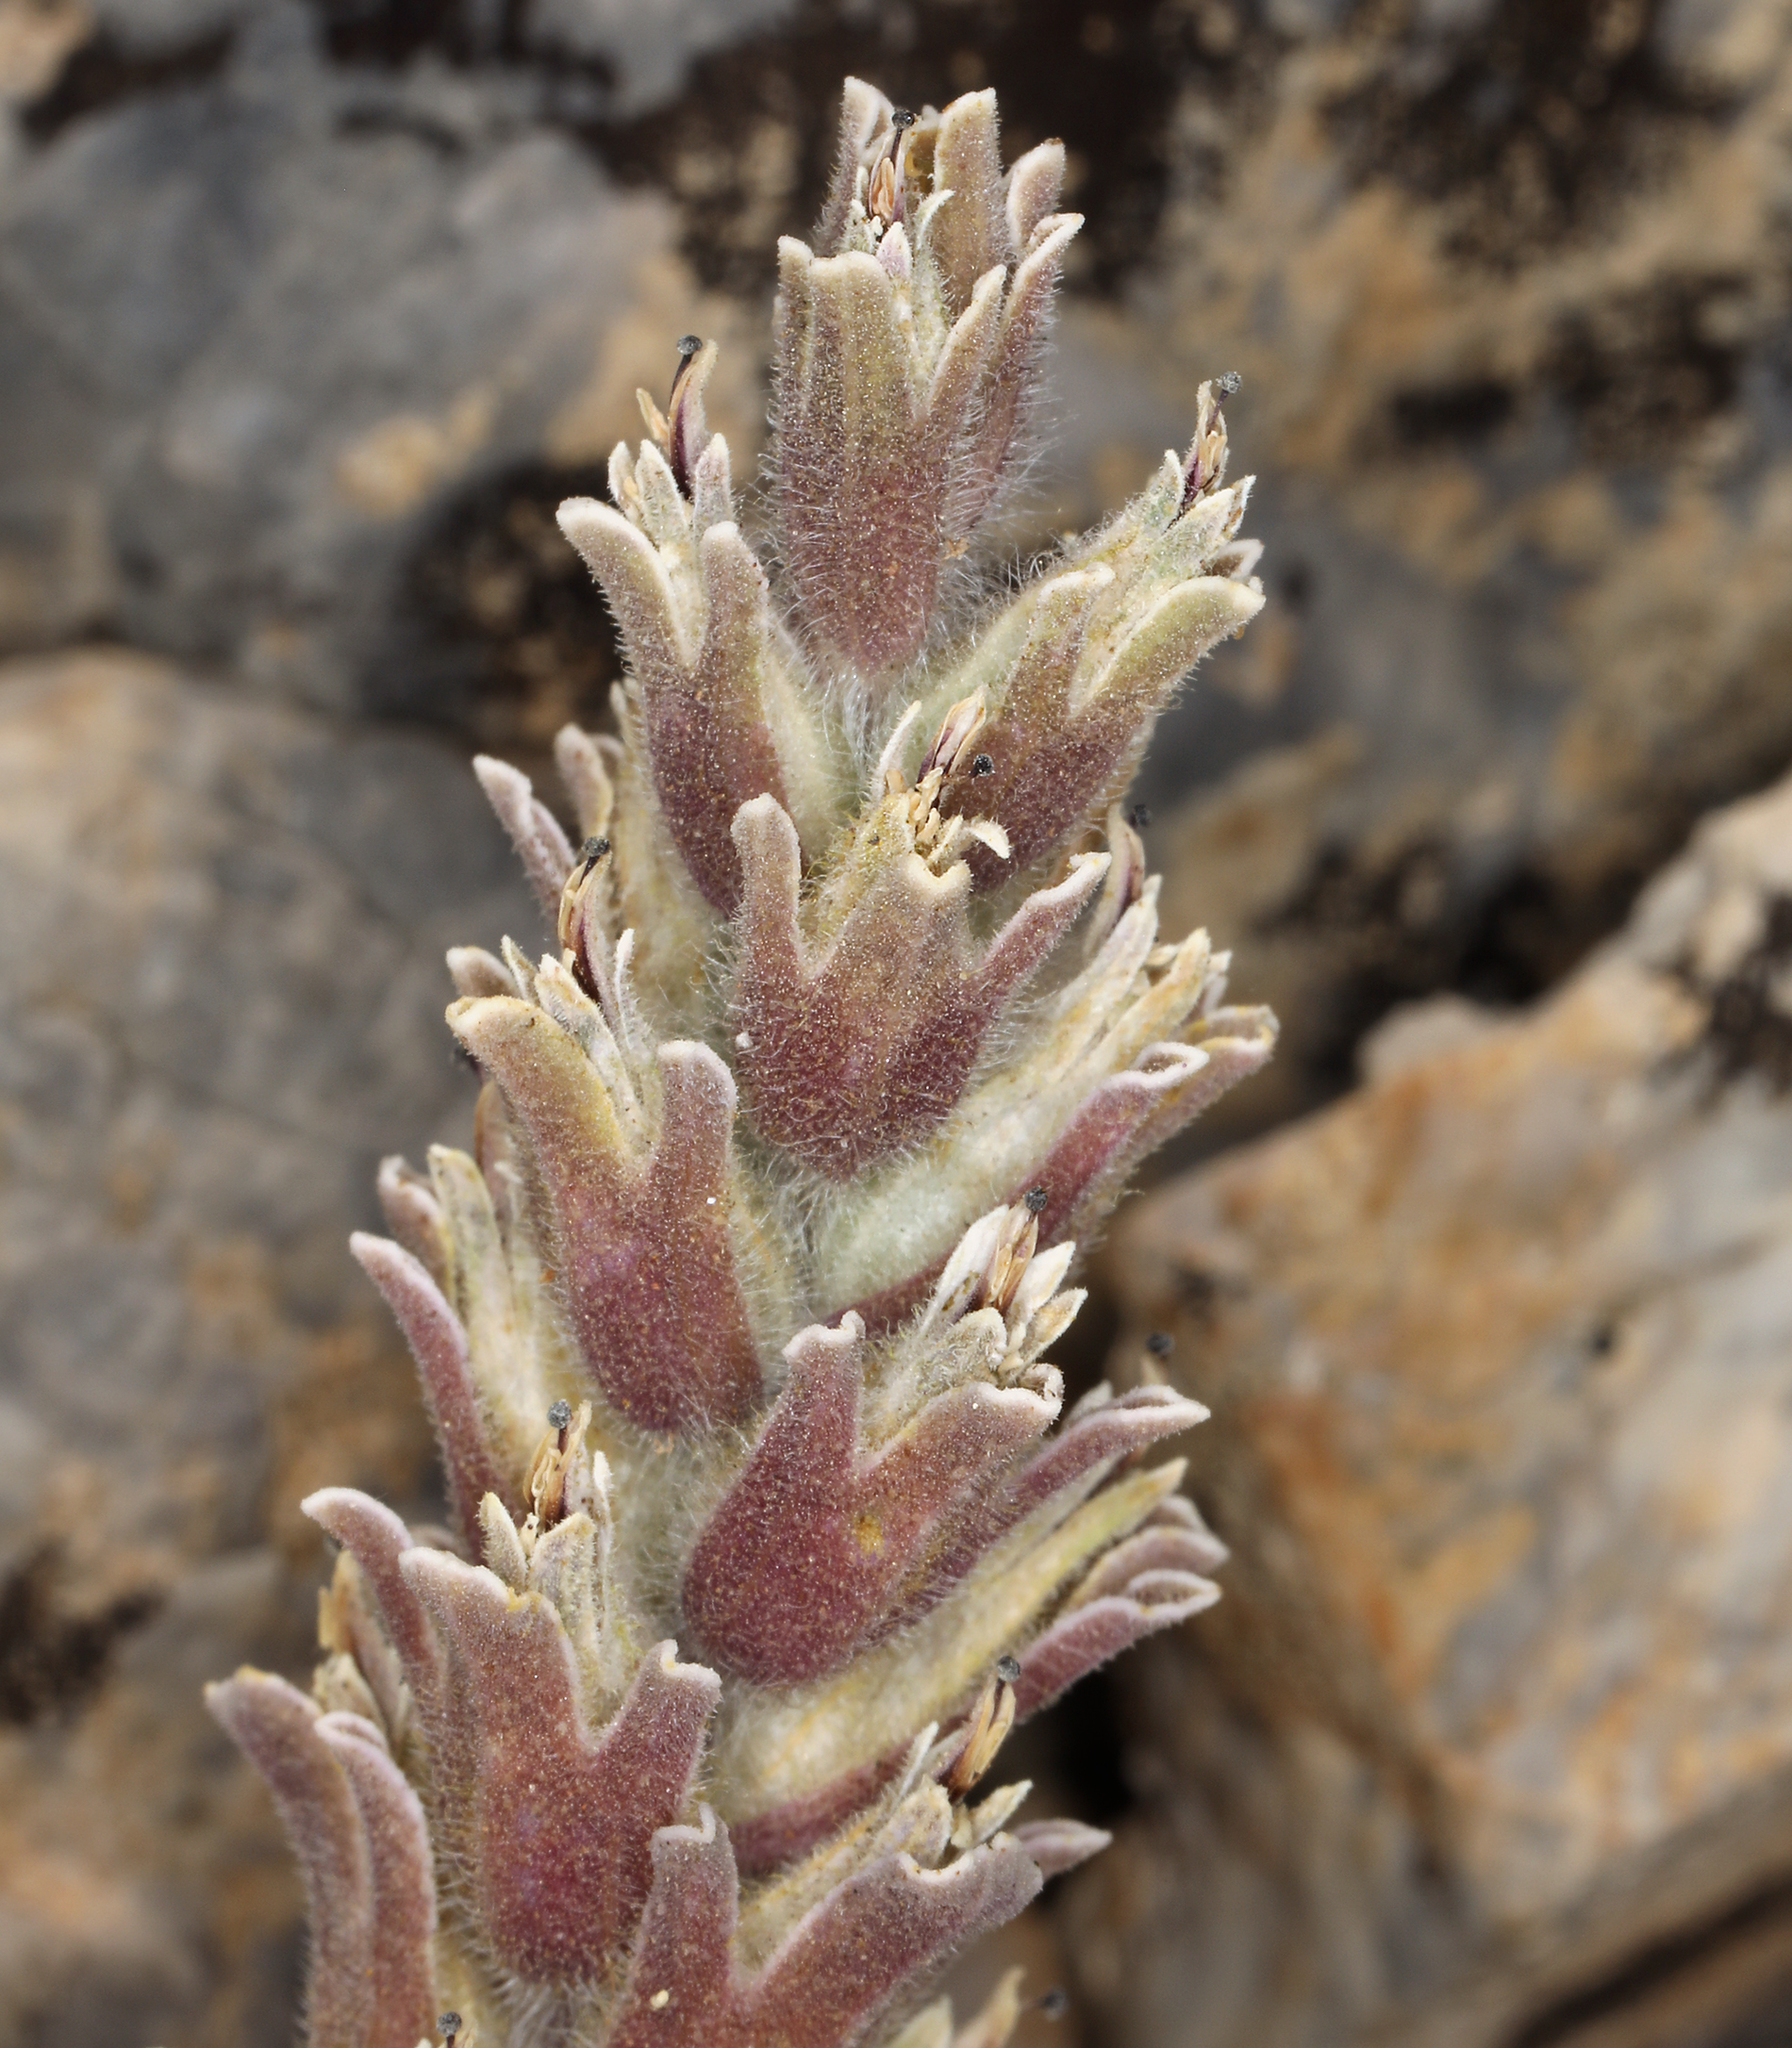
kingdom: Plantae
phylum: Tracheophyta
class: Magnoliopsida
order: Lamiales
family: Orobanchaceae
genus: Castilleja
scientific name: Castilleja nana
